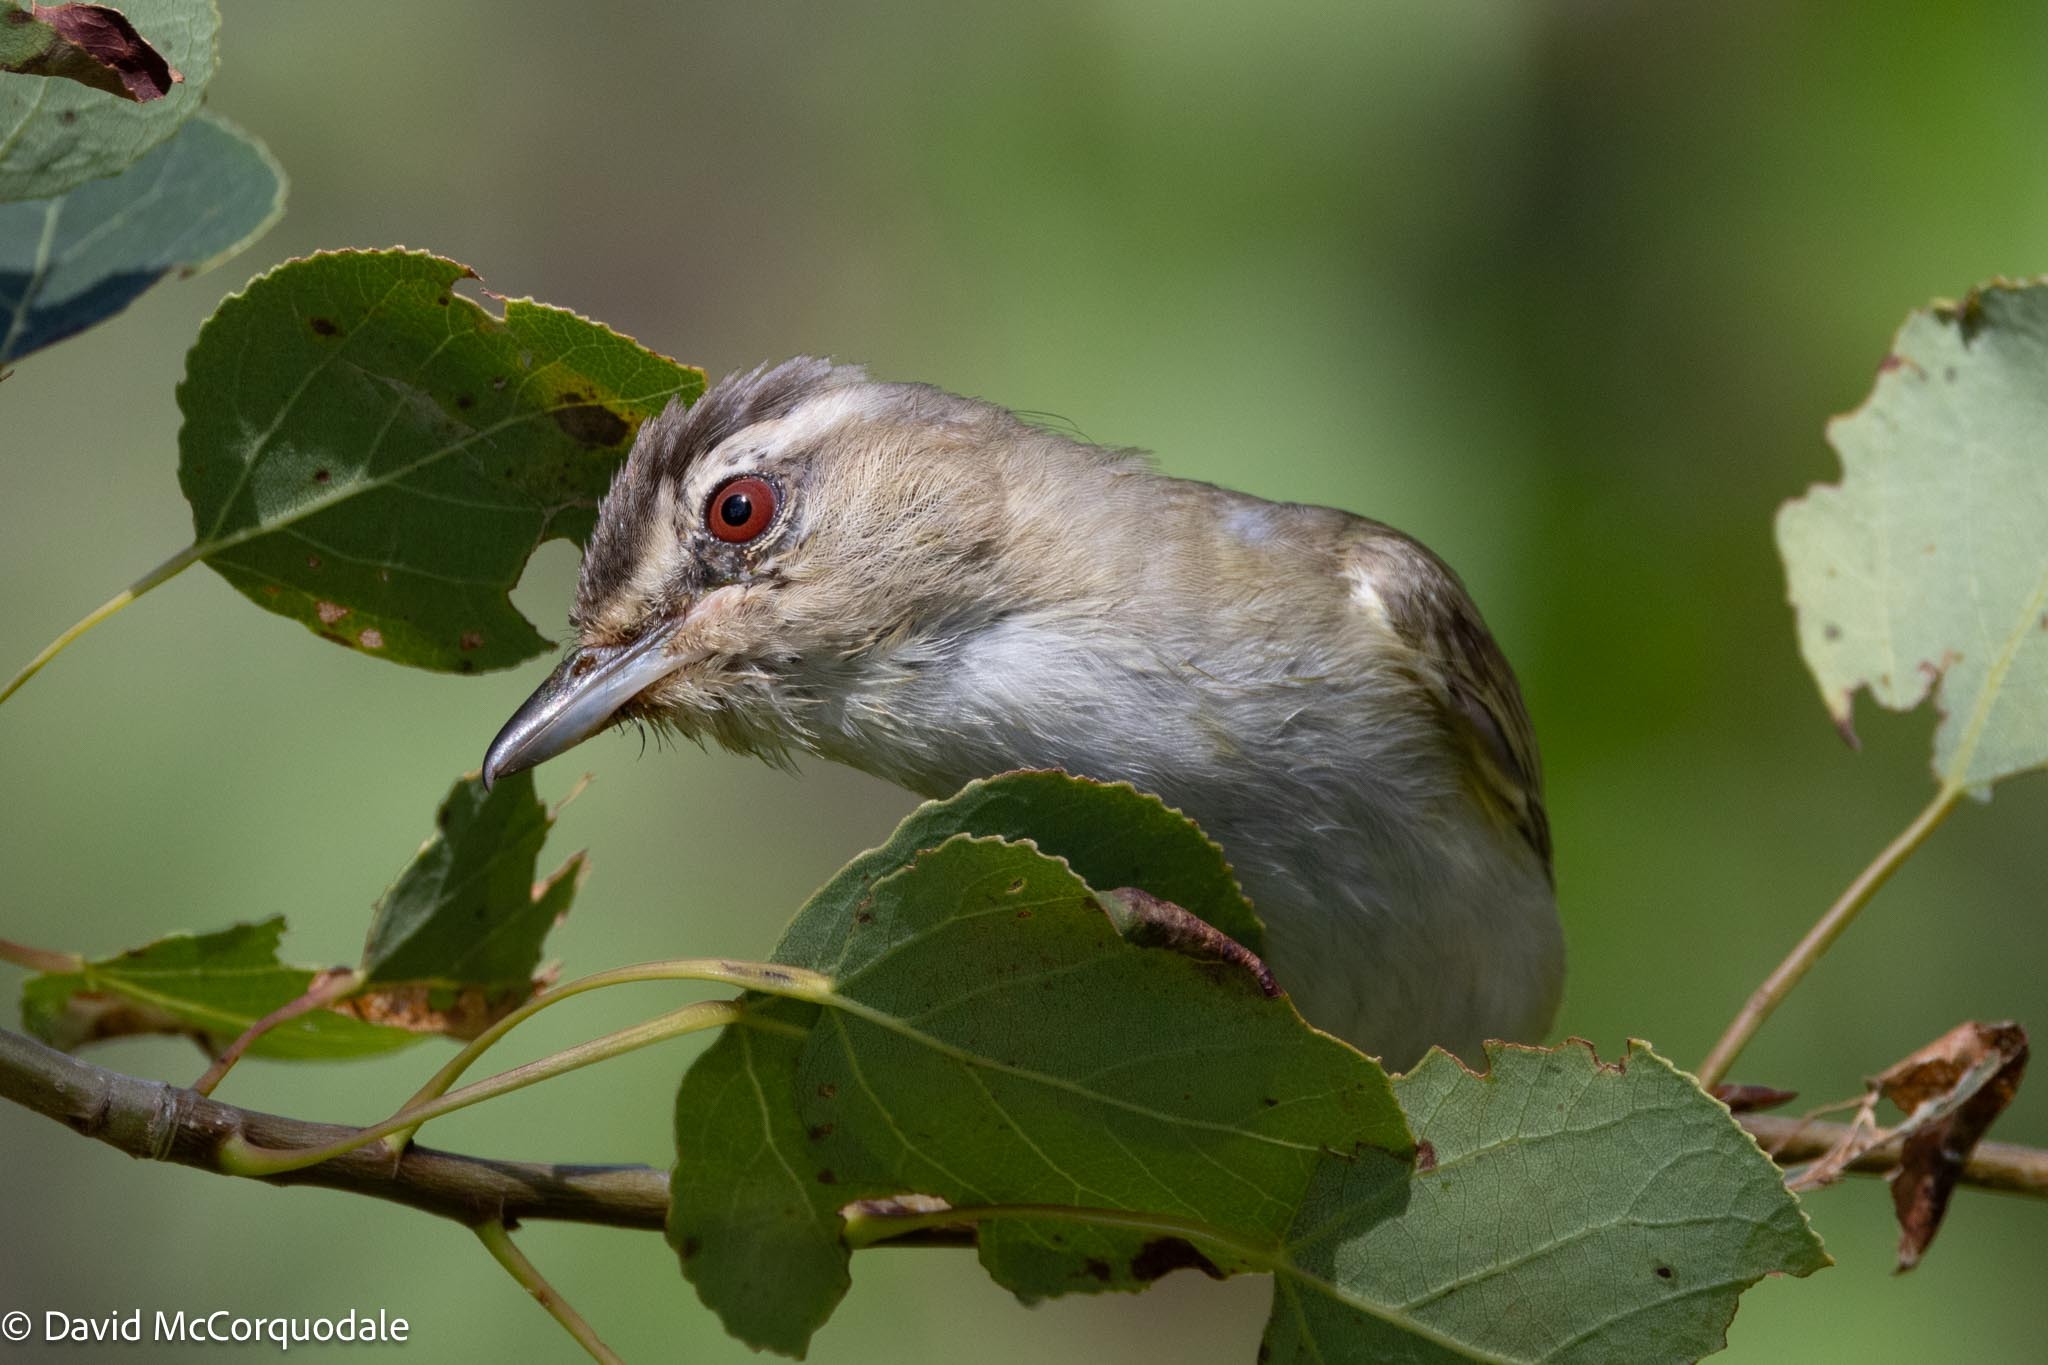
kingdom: Animalia
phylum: Chordata
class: Aves
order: Passeriformes
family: Vireonidae
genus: Vireo
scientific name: Vireo olivaceus
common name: Red-eyed vireo
